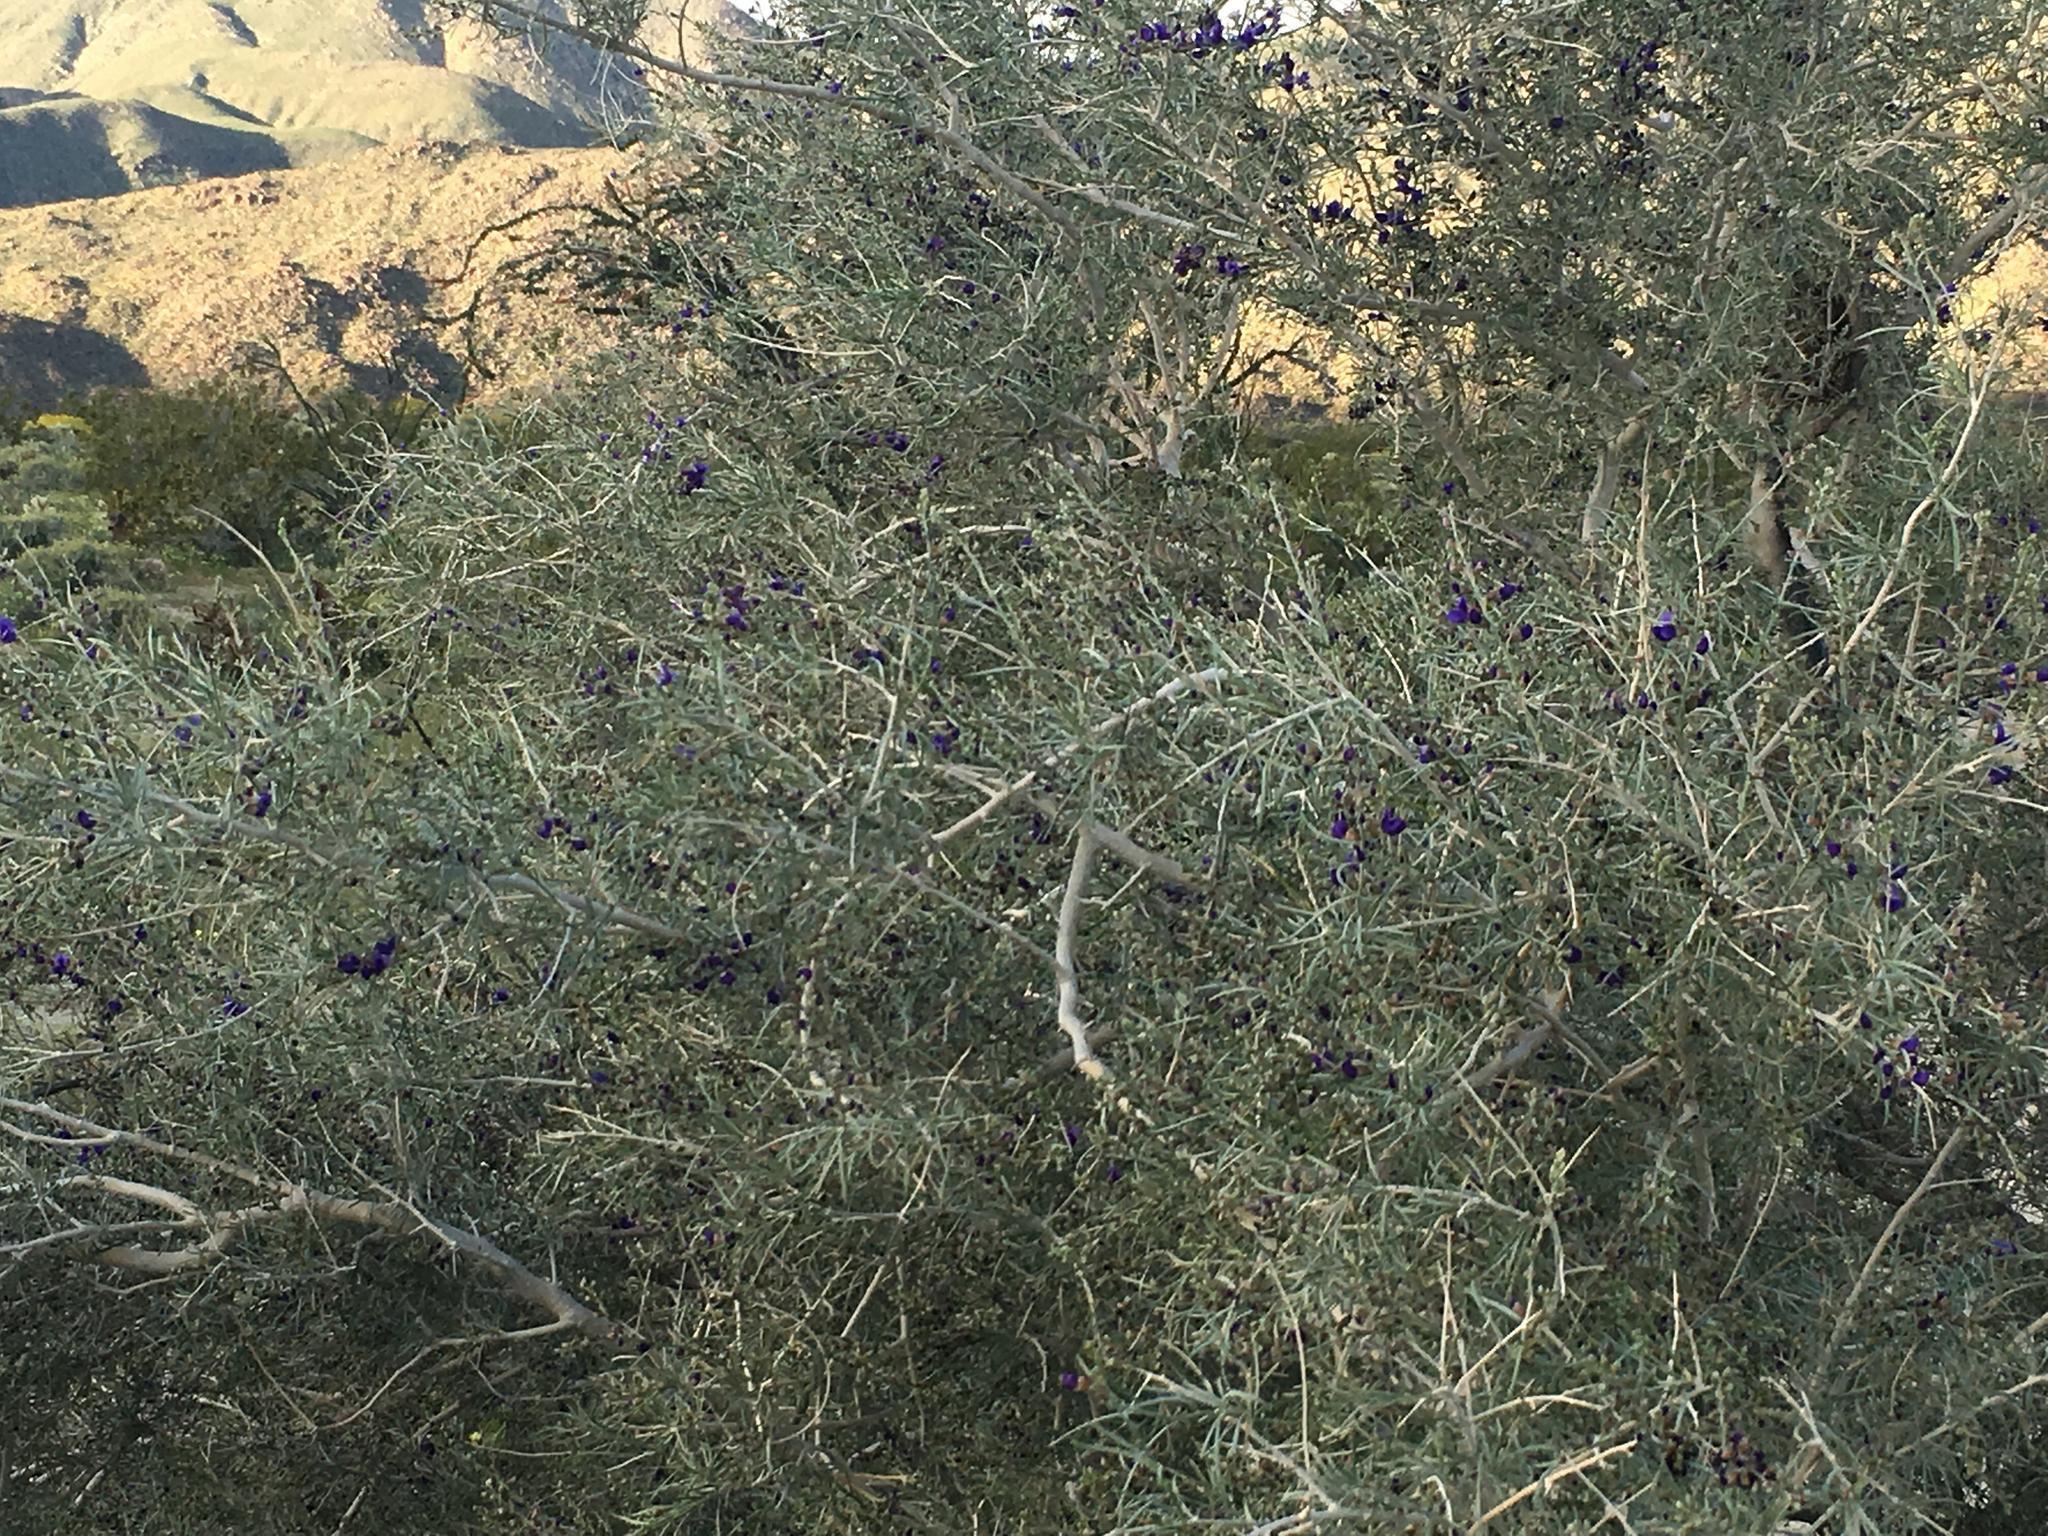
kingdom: Plantae
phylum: Tracheophyta
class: Magnoliopsida
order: Fabales
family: Fabaceae
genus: Psorothamnus
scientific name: Psorothamnus schottii
